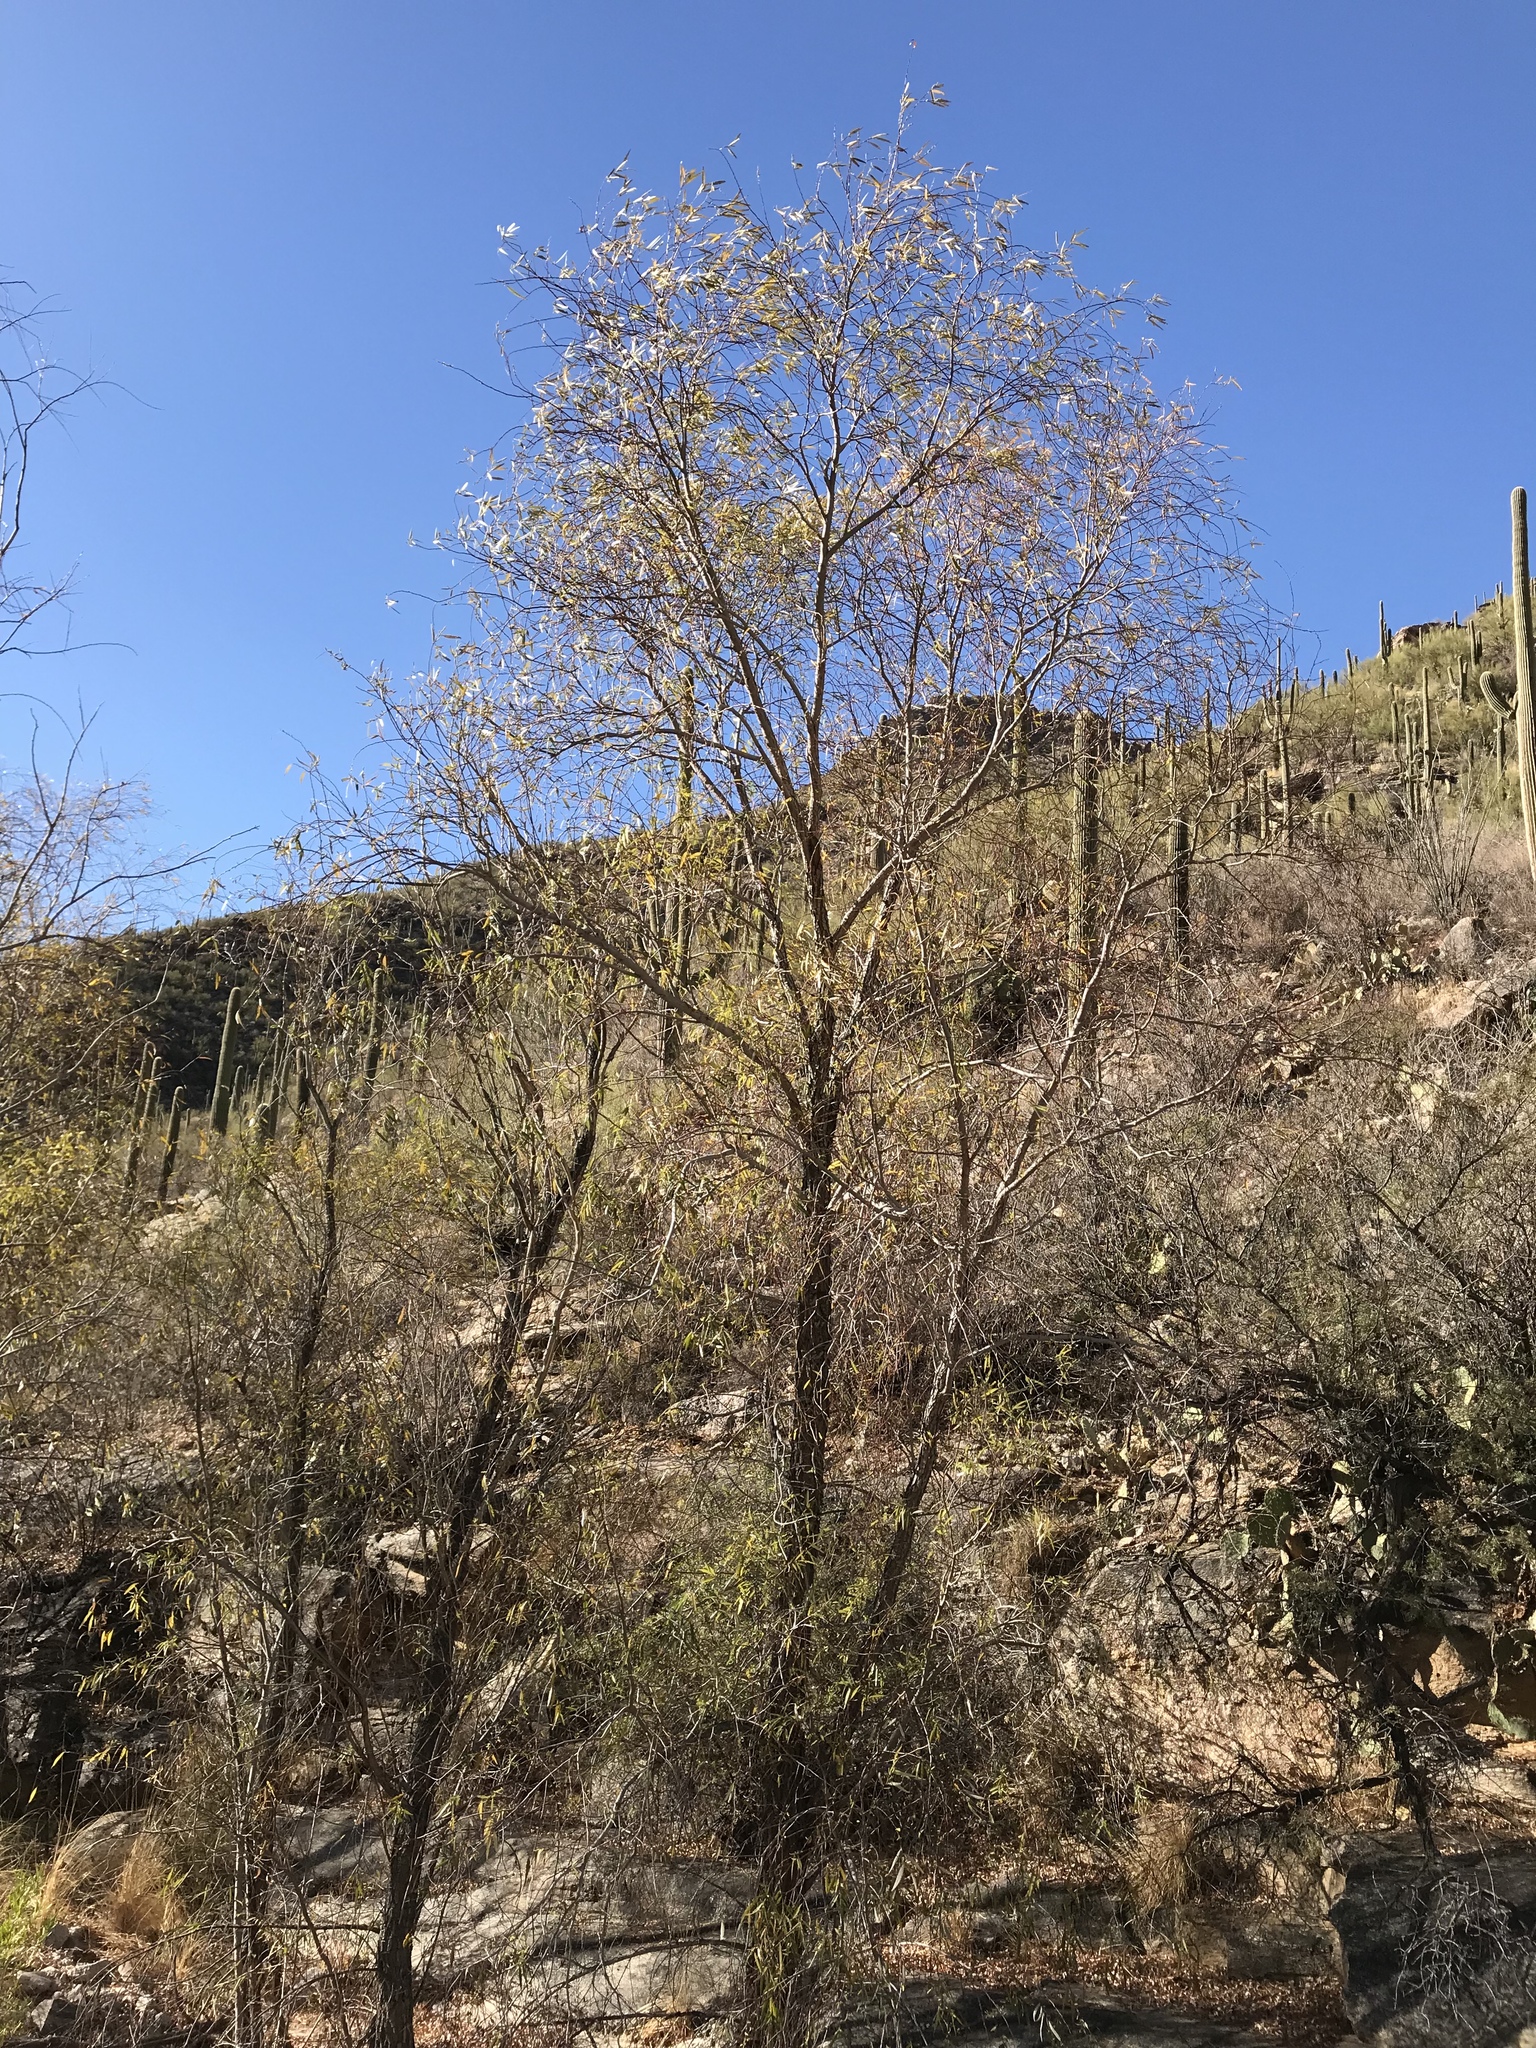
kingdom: Plantae
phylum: Tracheophyta
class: Magnoliopsida
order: Malpighiales
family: Salicaceae
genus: Populus
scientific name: Populus fremontii
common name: Fremont's cottonwood
